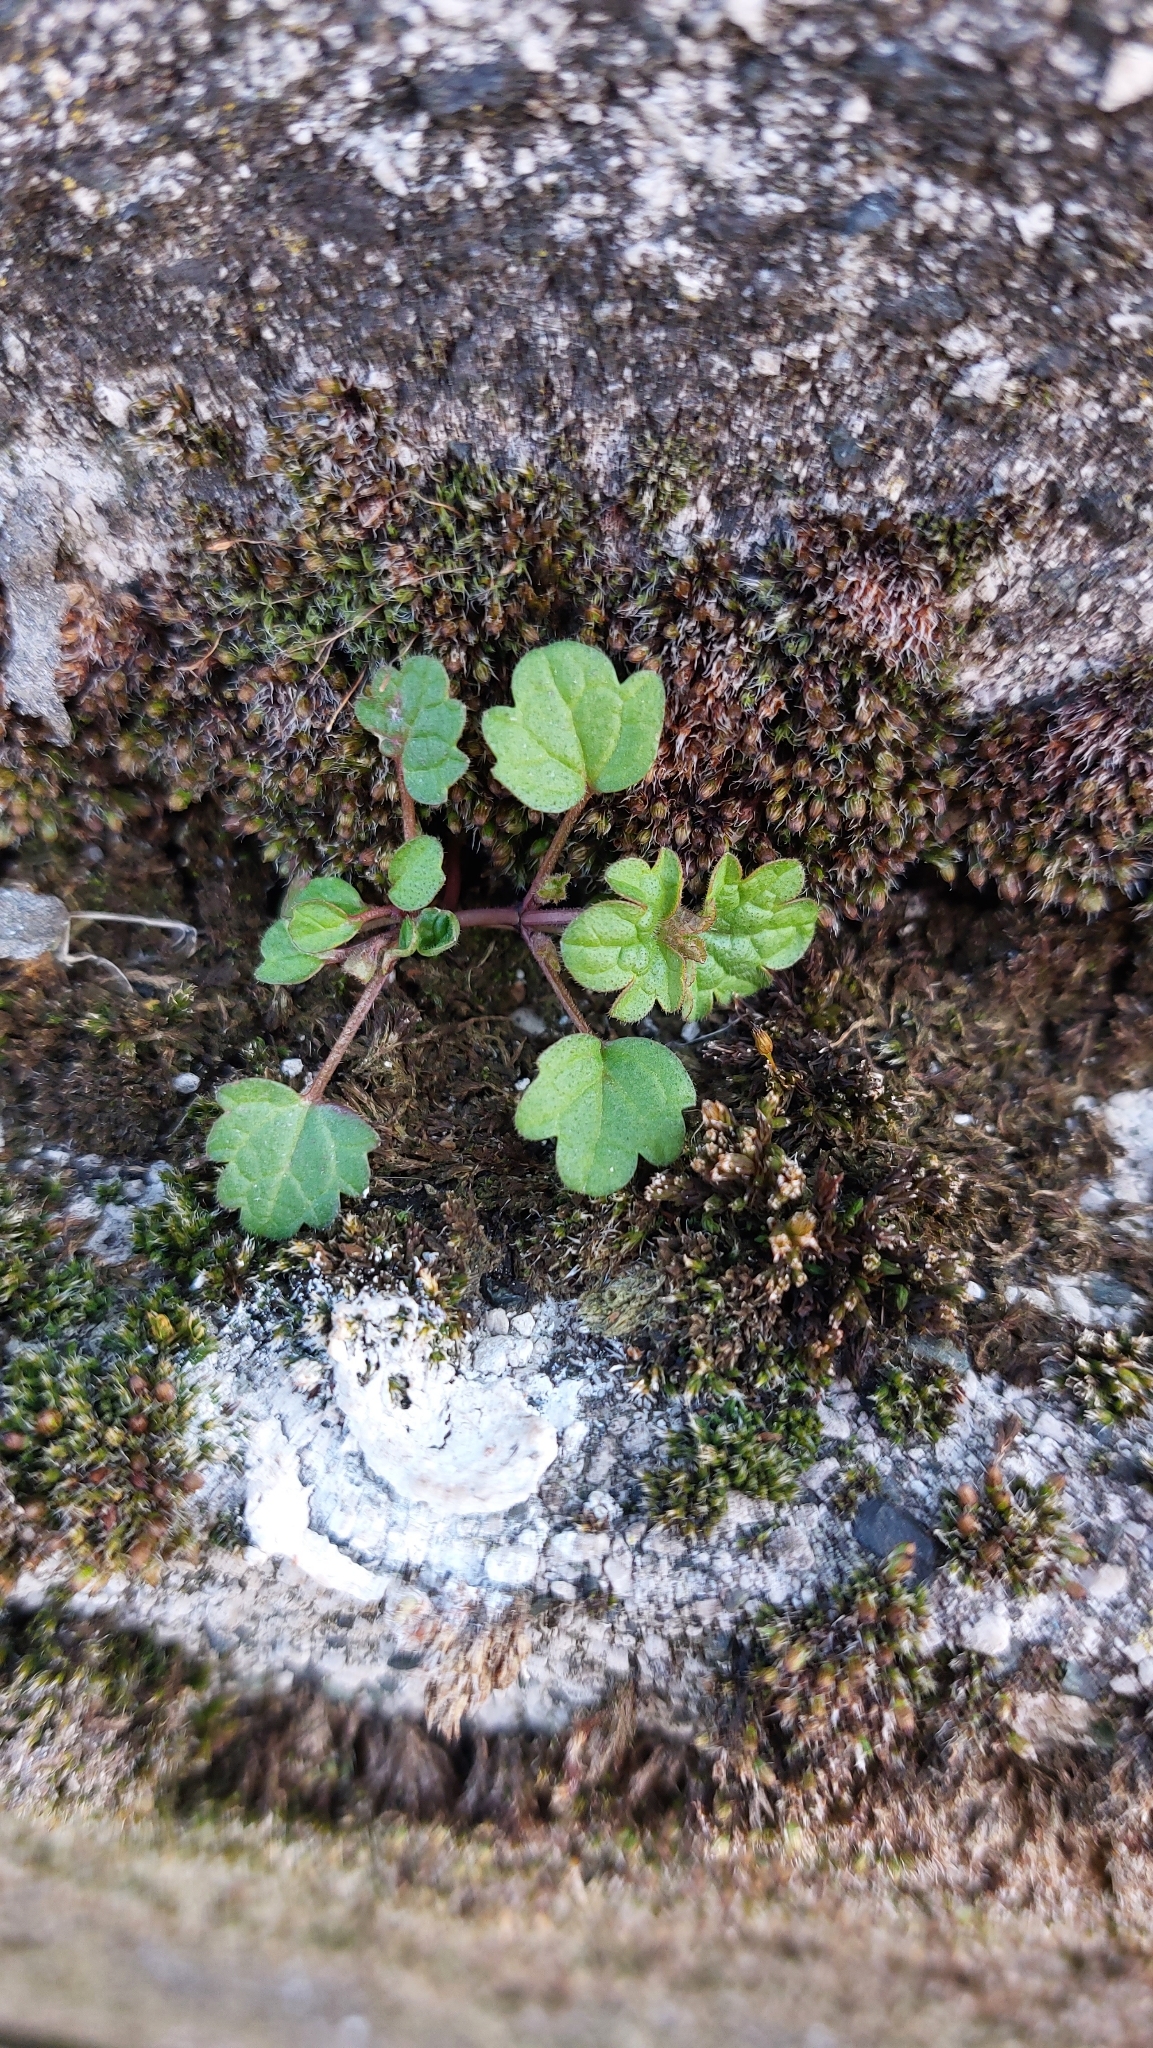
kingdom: Plantae
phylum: Tracheophyta
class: Magnoliopsida
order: Lamiales
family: Plantaginaceae
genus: Cymbalaria
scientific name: Cymbalaria muralis
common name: Ivy-leaved toadflax
